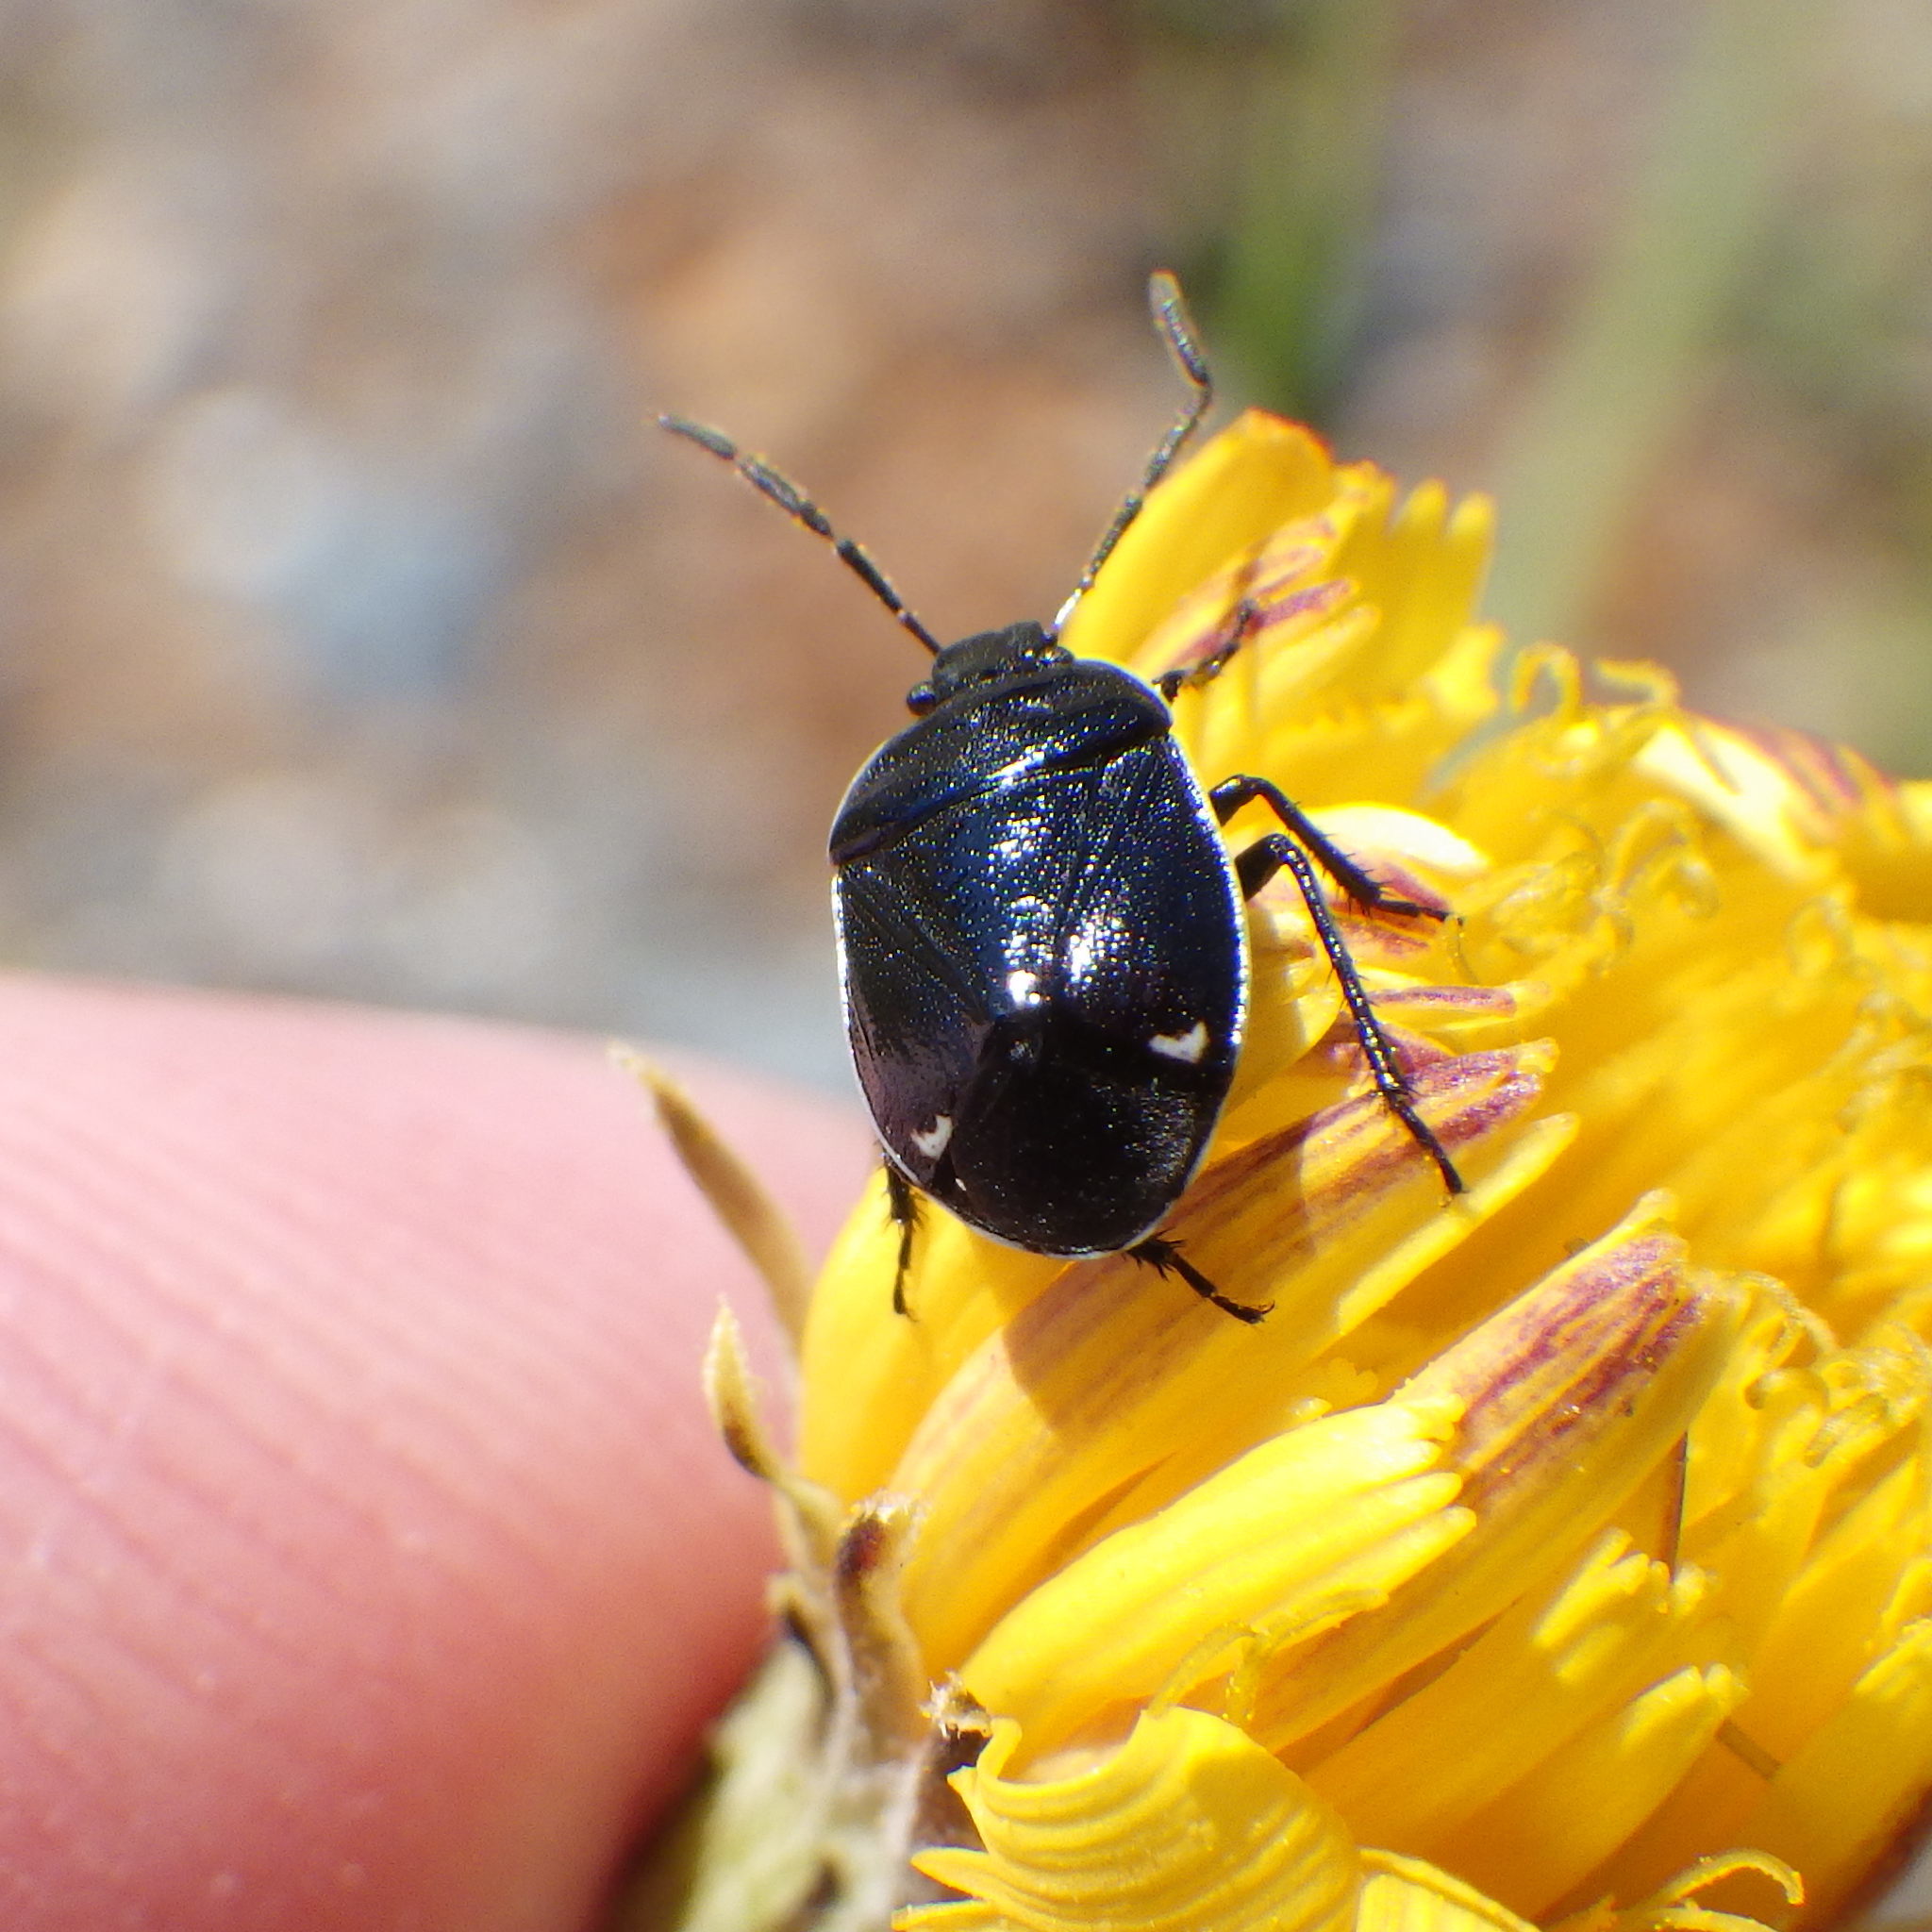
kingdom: Animalia
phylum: Arthropoda
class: Insecta
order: Hemiptera
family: Cydnidae
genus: Sehirus
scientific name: Sehirus cinctus
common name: White-margined burrower bug
